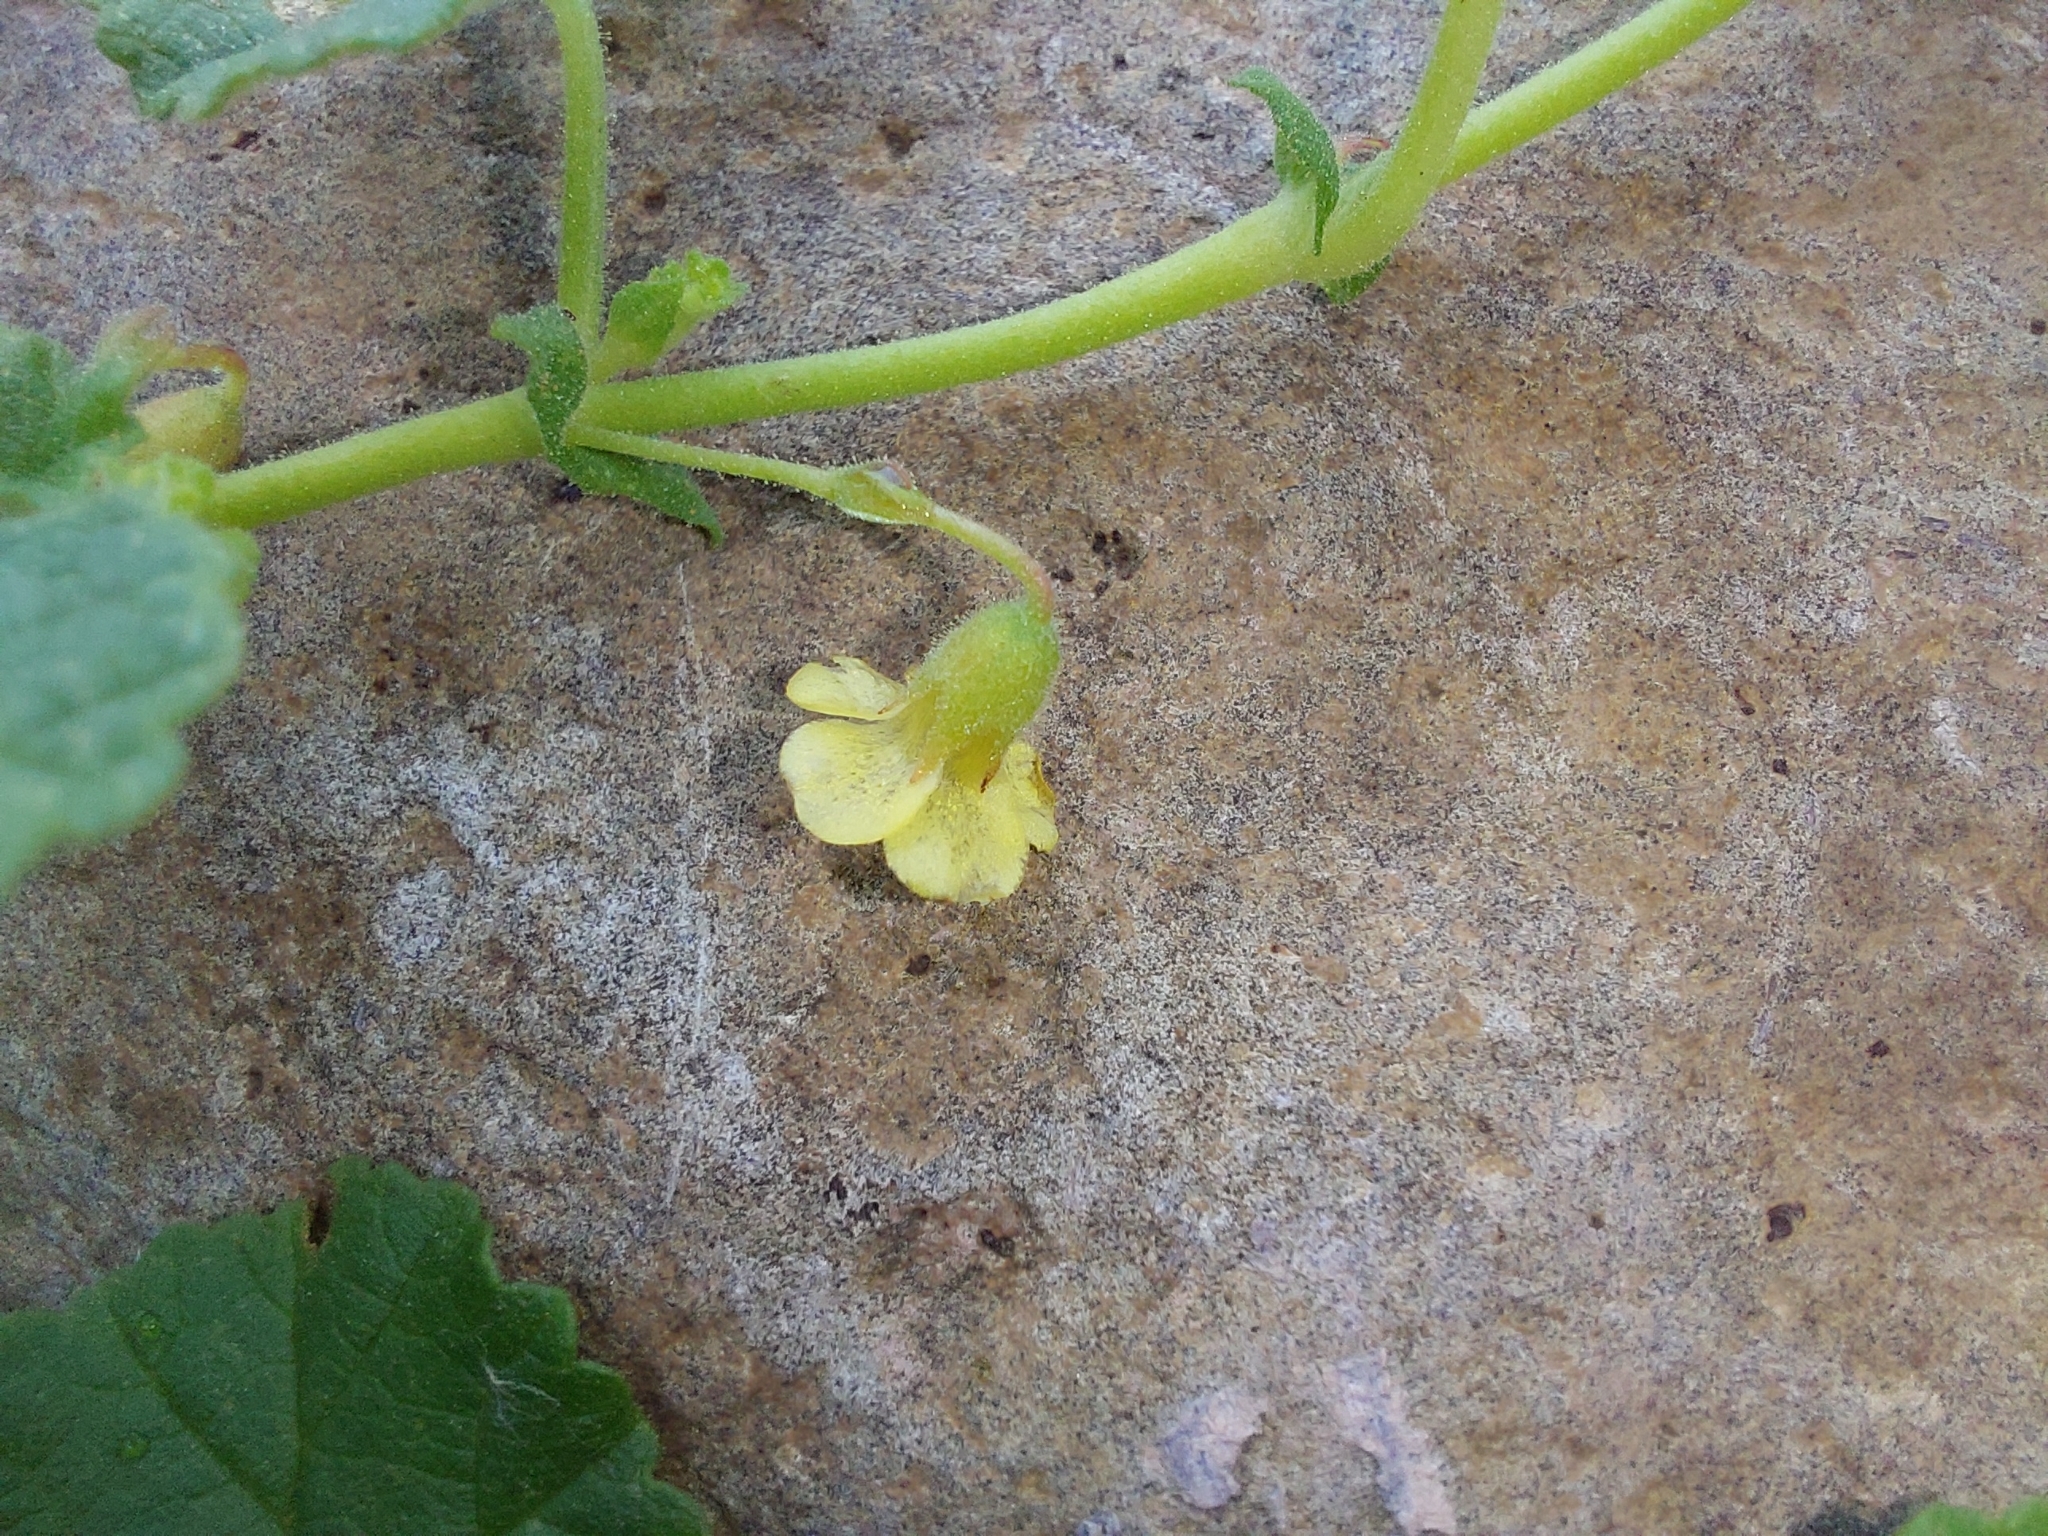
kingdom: Plantae
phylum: Tracheophyta
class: Magnoliopsida
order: Malvales
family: Malvaceae
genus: Hermannia
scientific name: Hermannia malvifolia
